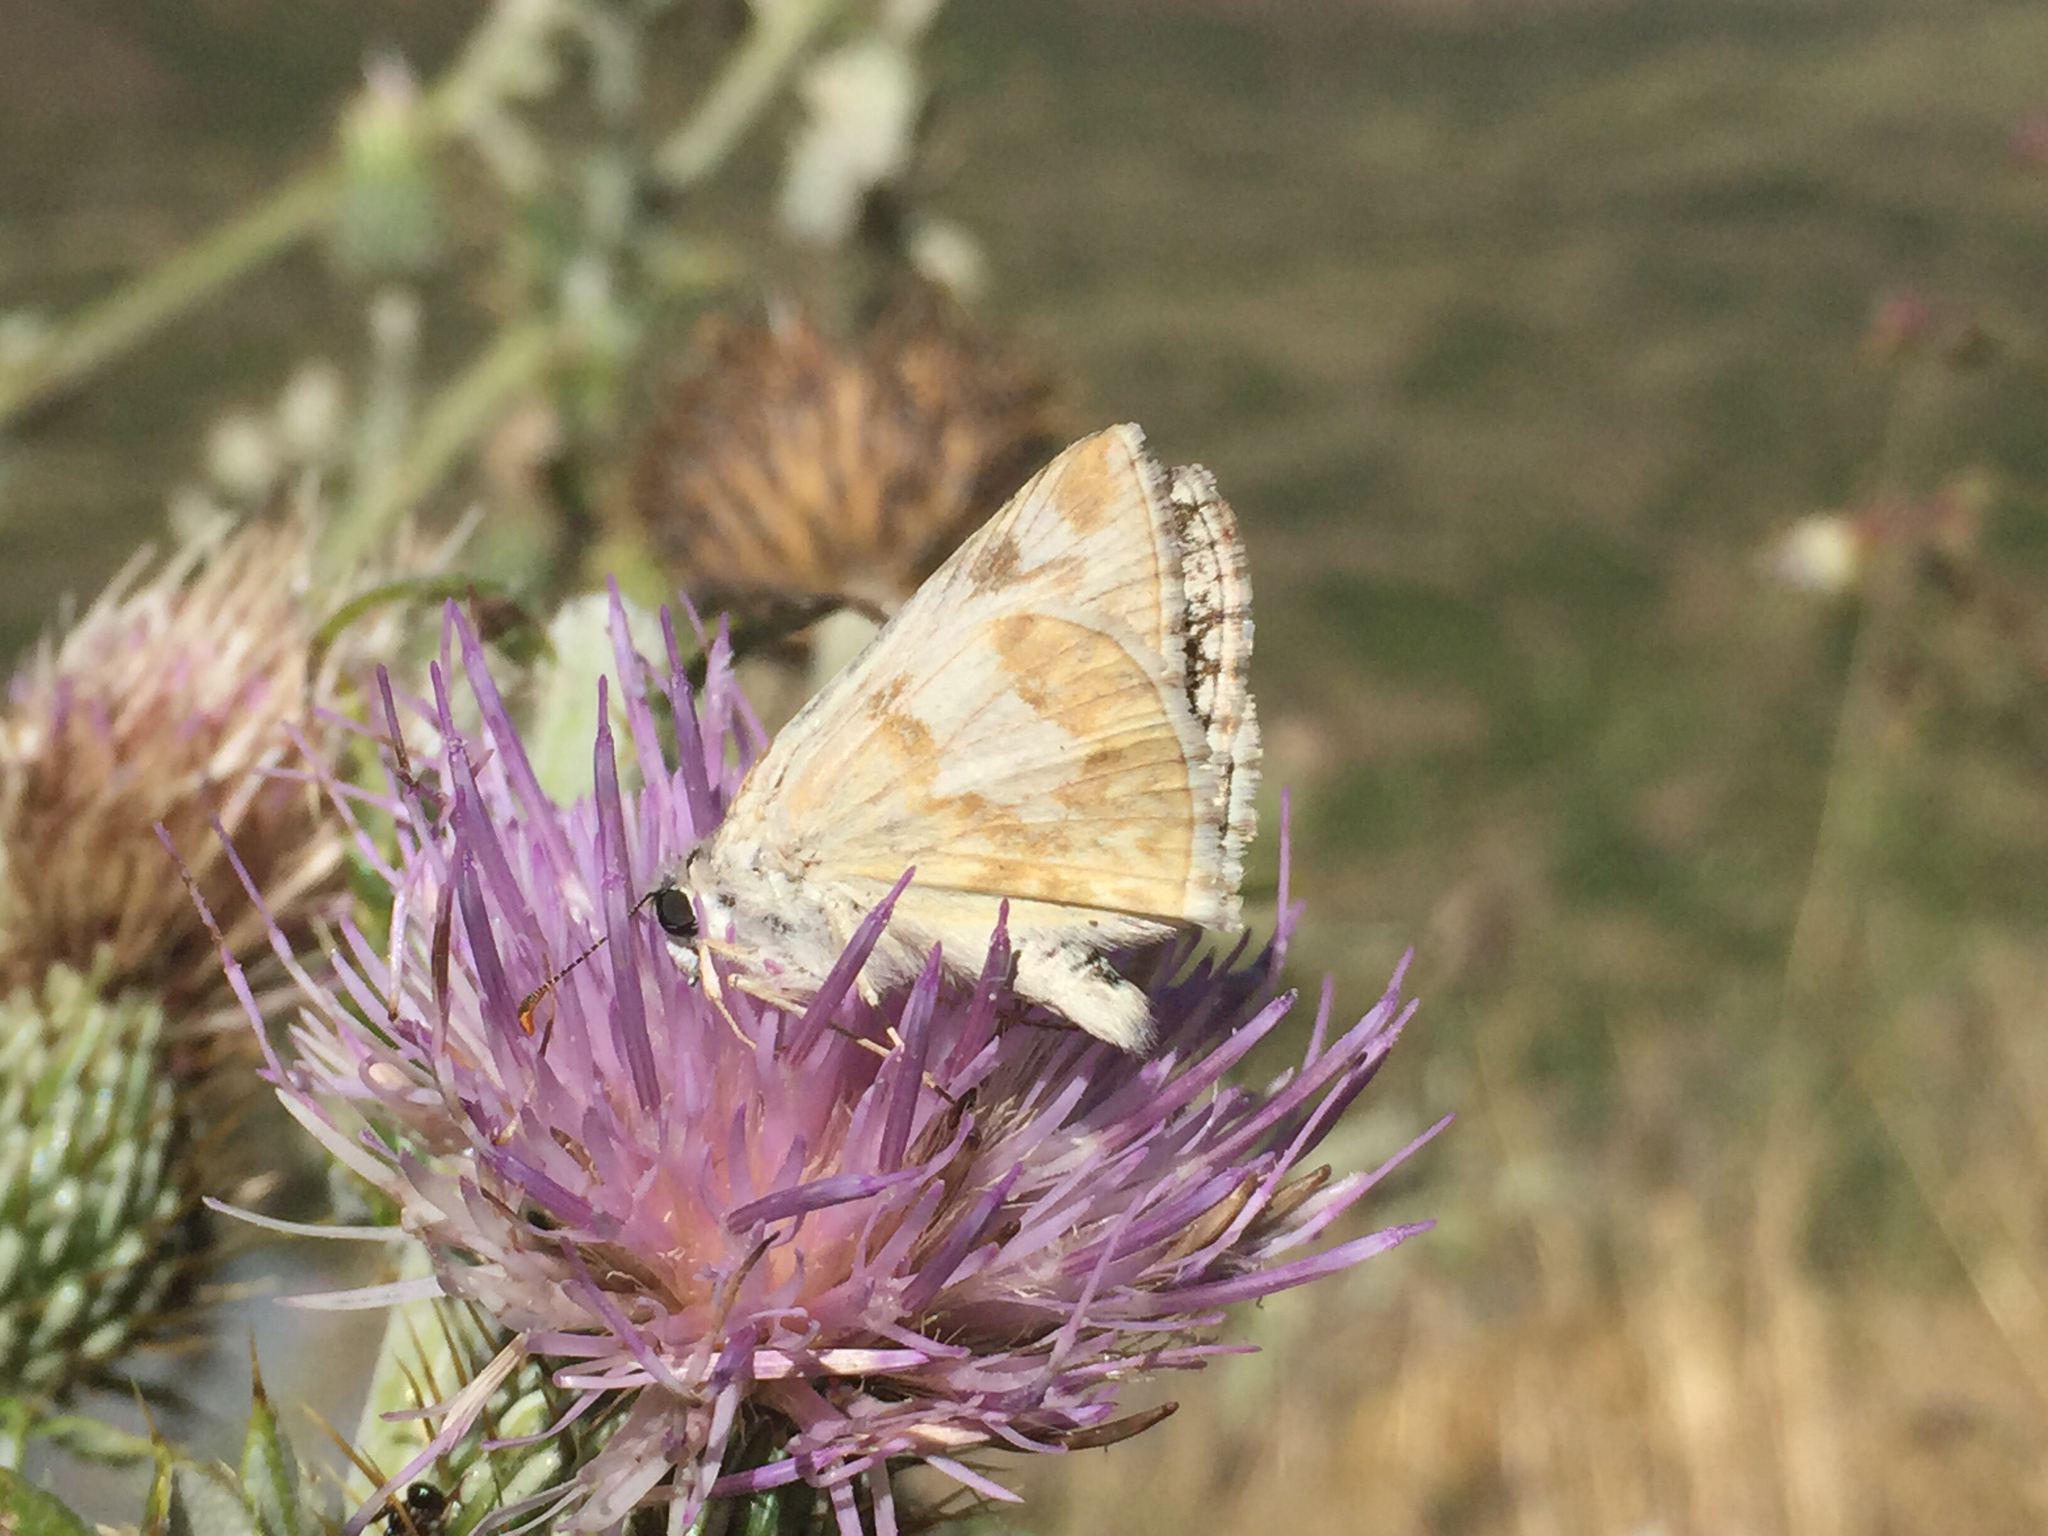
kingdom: Animalia
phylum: Arthropoda
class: Insecta
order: Lepidoptera
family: Hesperiidae
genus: Heliopetes
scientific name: Heliopetes ericetorum
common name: Northern white-skipper
